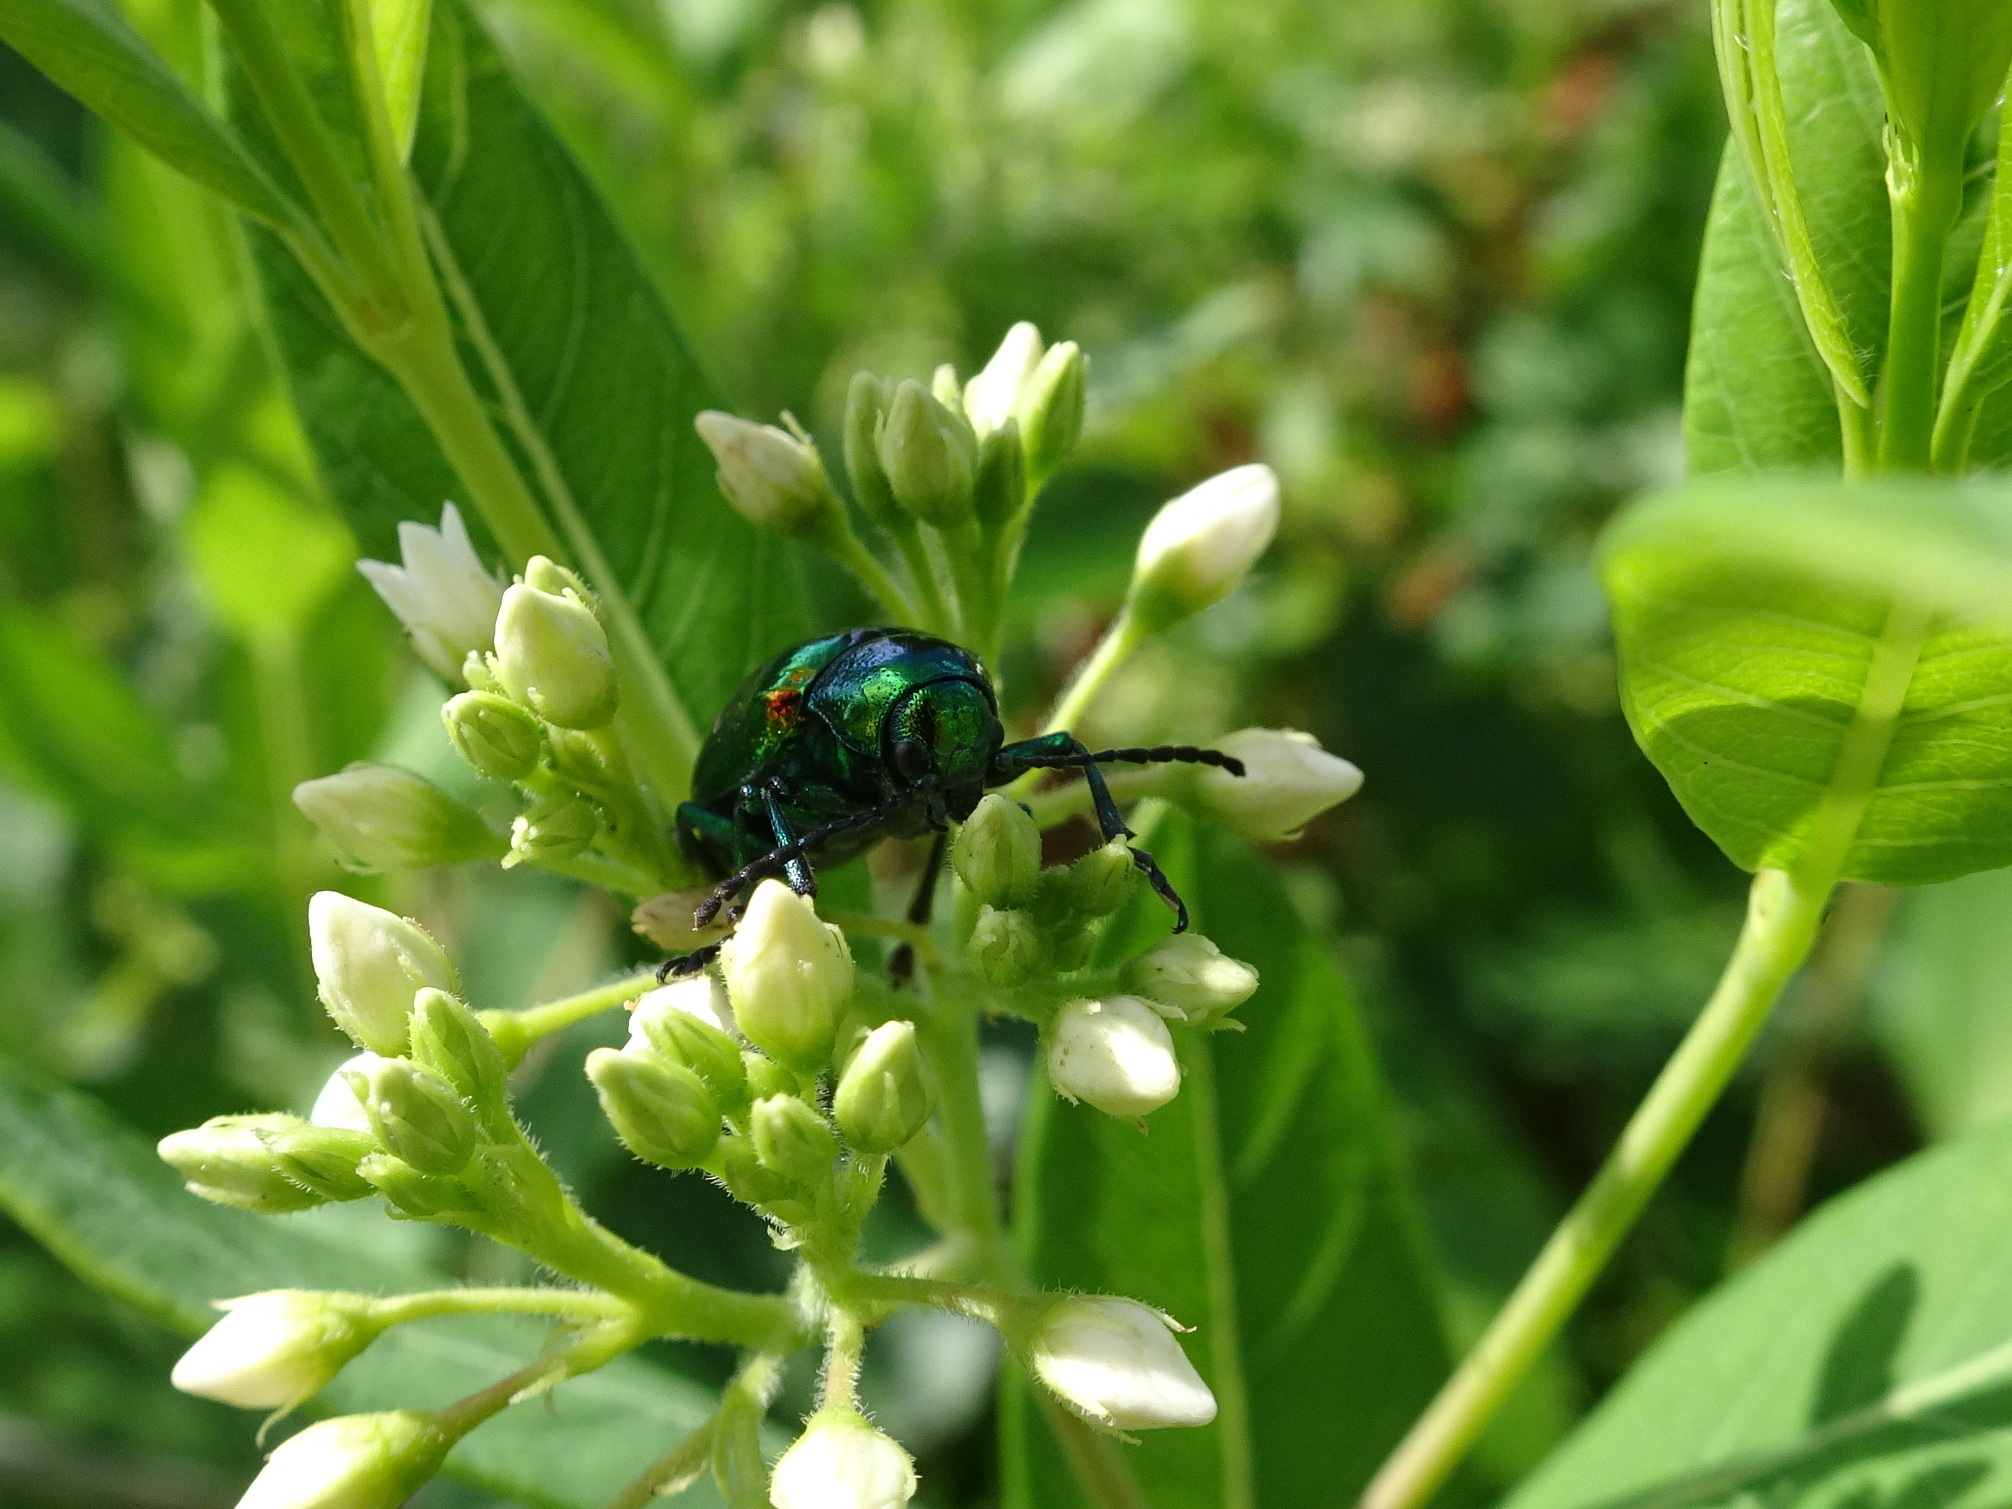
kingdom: Animalia
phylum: Arthropoda
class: Insecta
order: Coleoptera
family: Chrysomelidae
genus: Chrysochus
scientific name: Chrysochus auratus
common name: Dogbane leaf beetle
